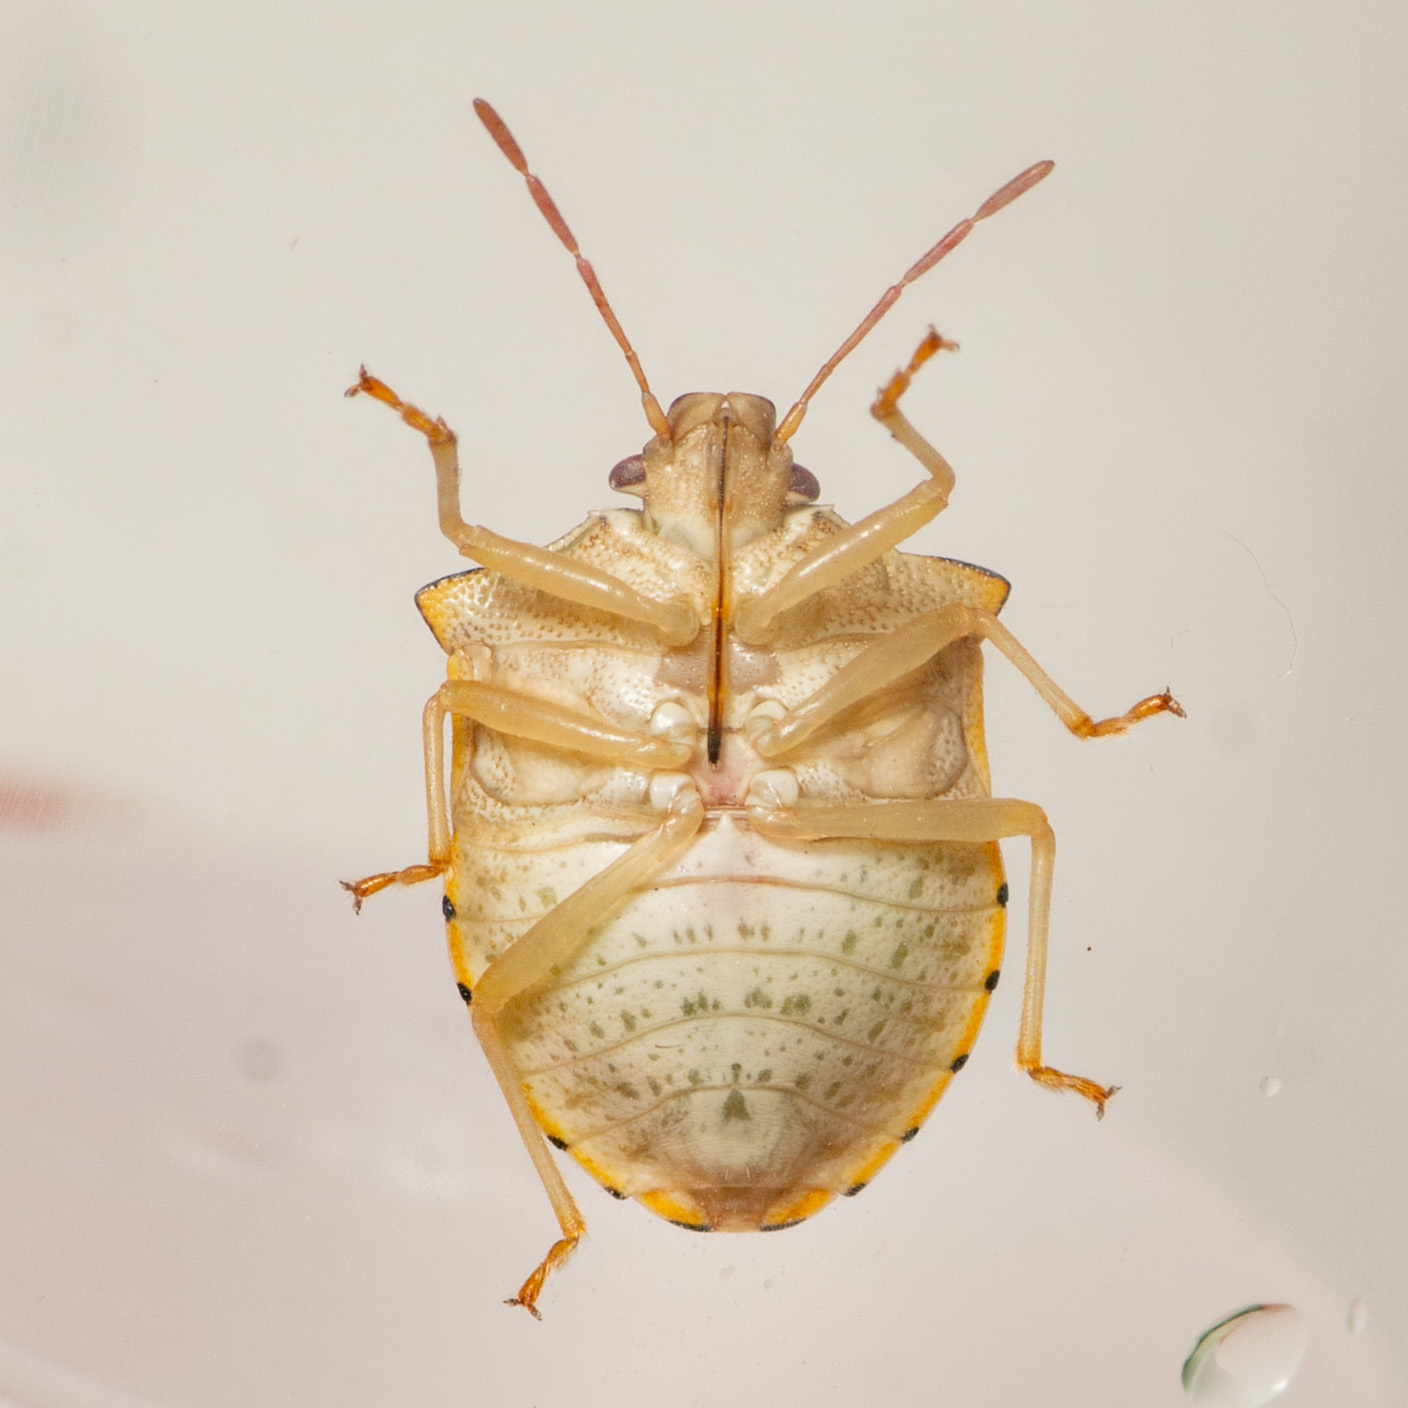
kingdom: Animalia
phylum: Arthropoda
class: Insecta
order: Hemiptera
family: Pentatomidae
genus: Dendrocoris
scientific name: Dendrocoris humeralis
